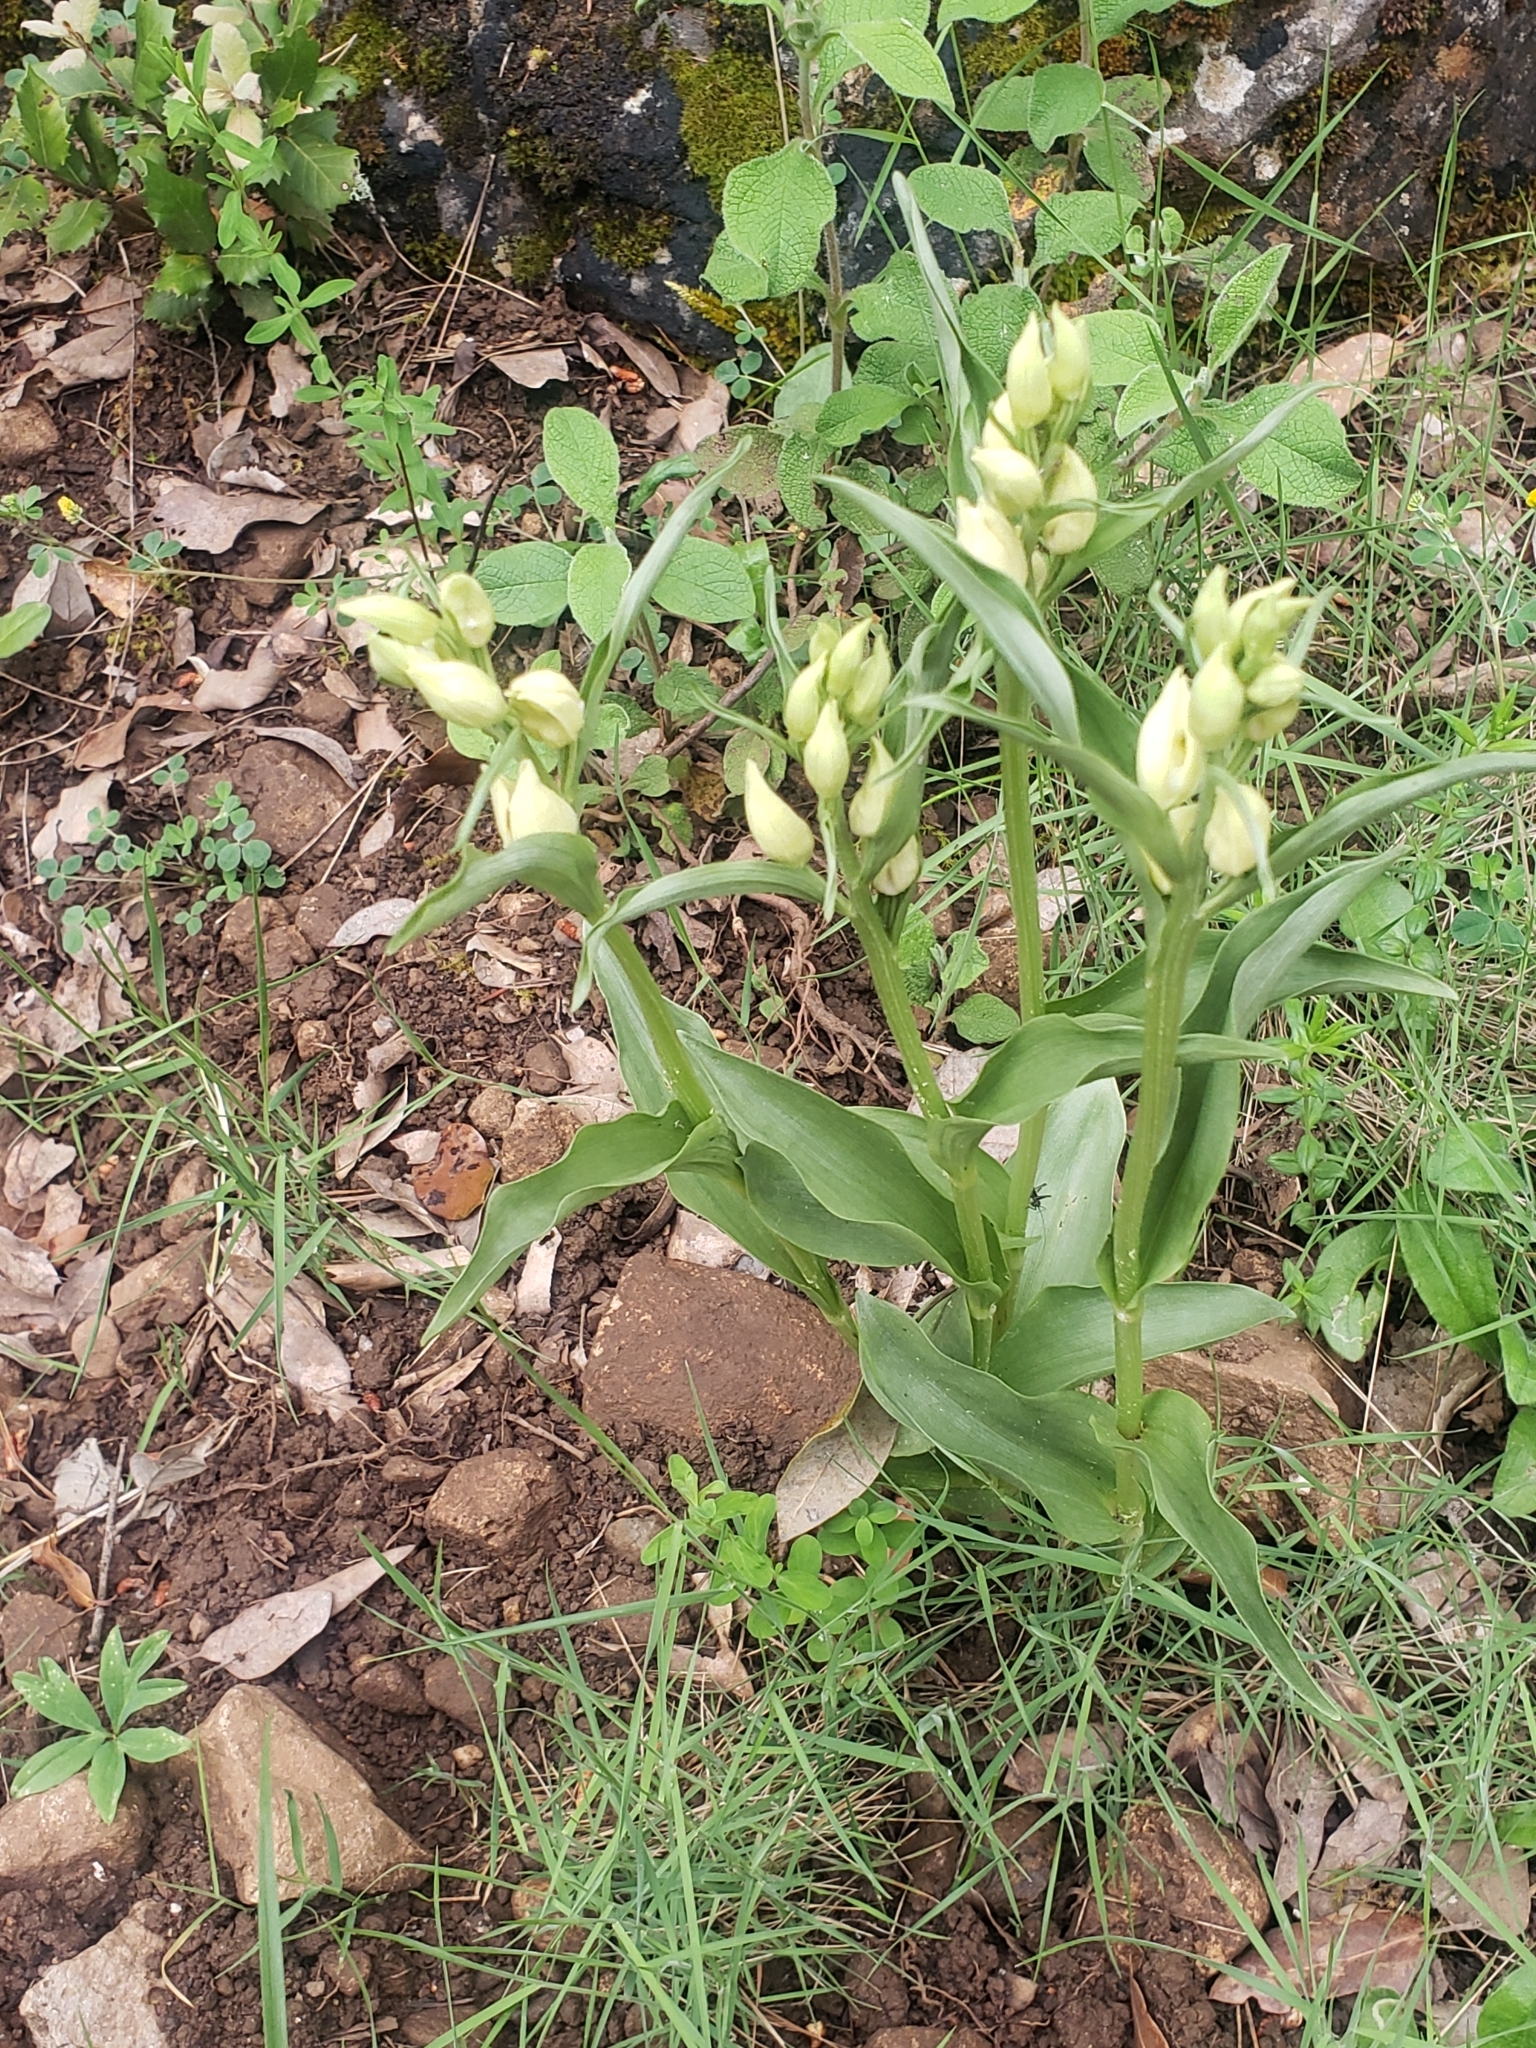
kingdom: Plantae
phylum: Tracheophyta
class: Liliopsida
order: Asparagales
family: Orchidaceae
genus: Cephalanthera
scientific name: Cephalanthera damasonium
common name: White helleborine
